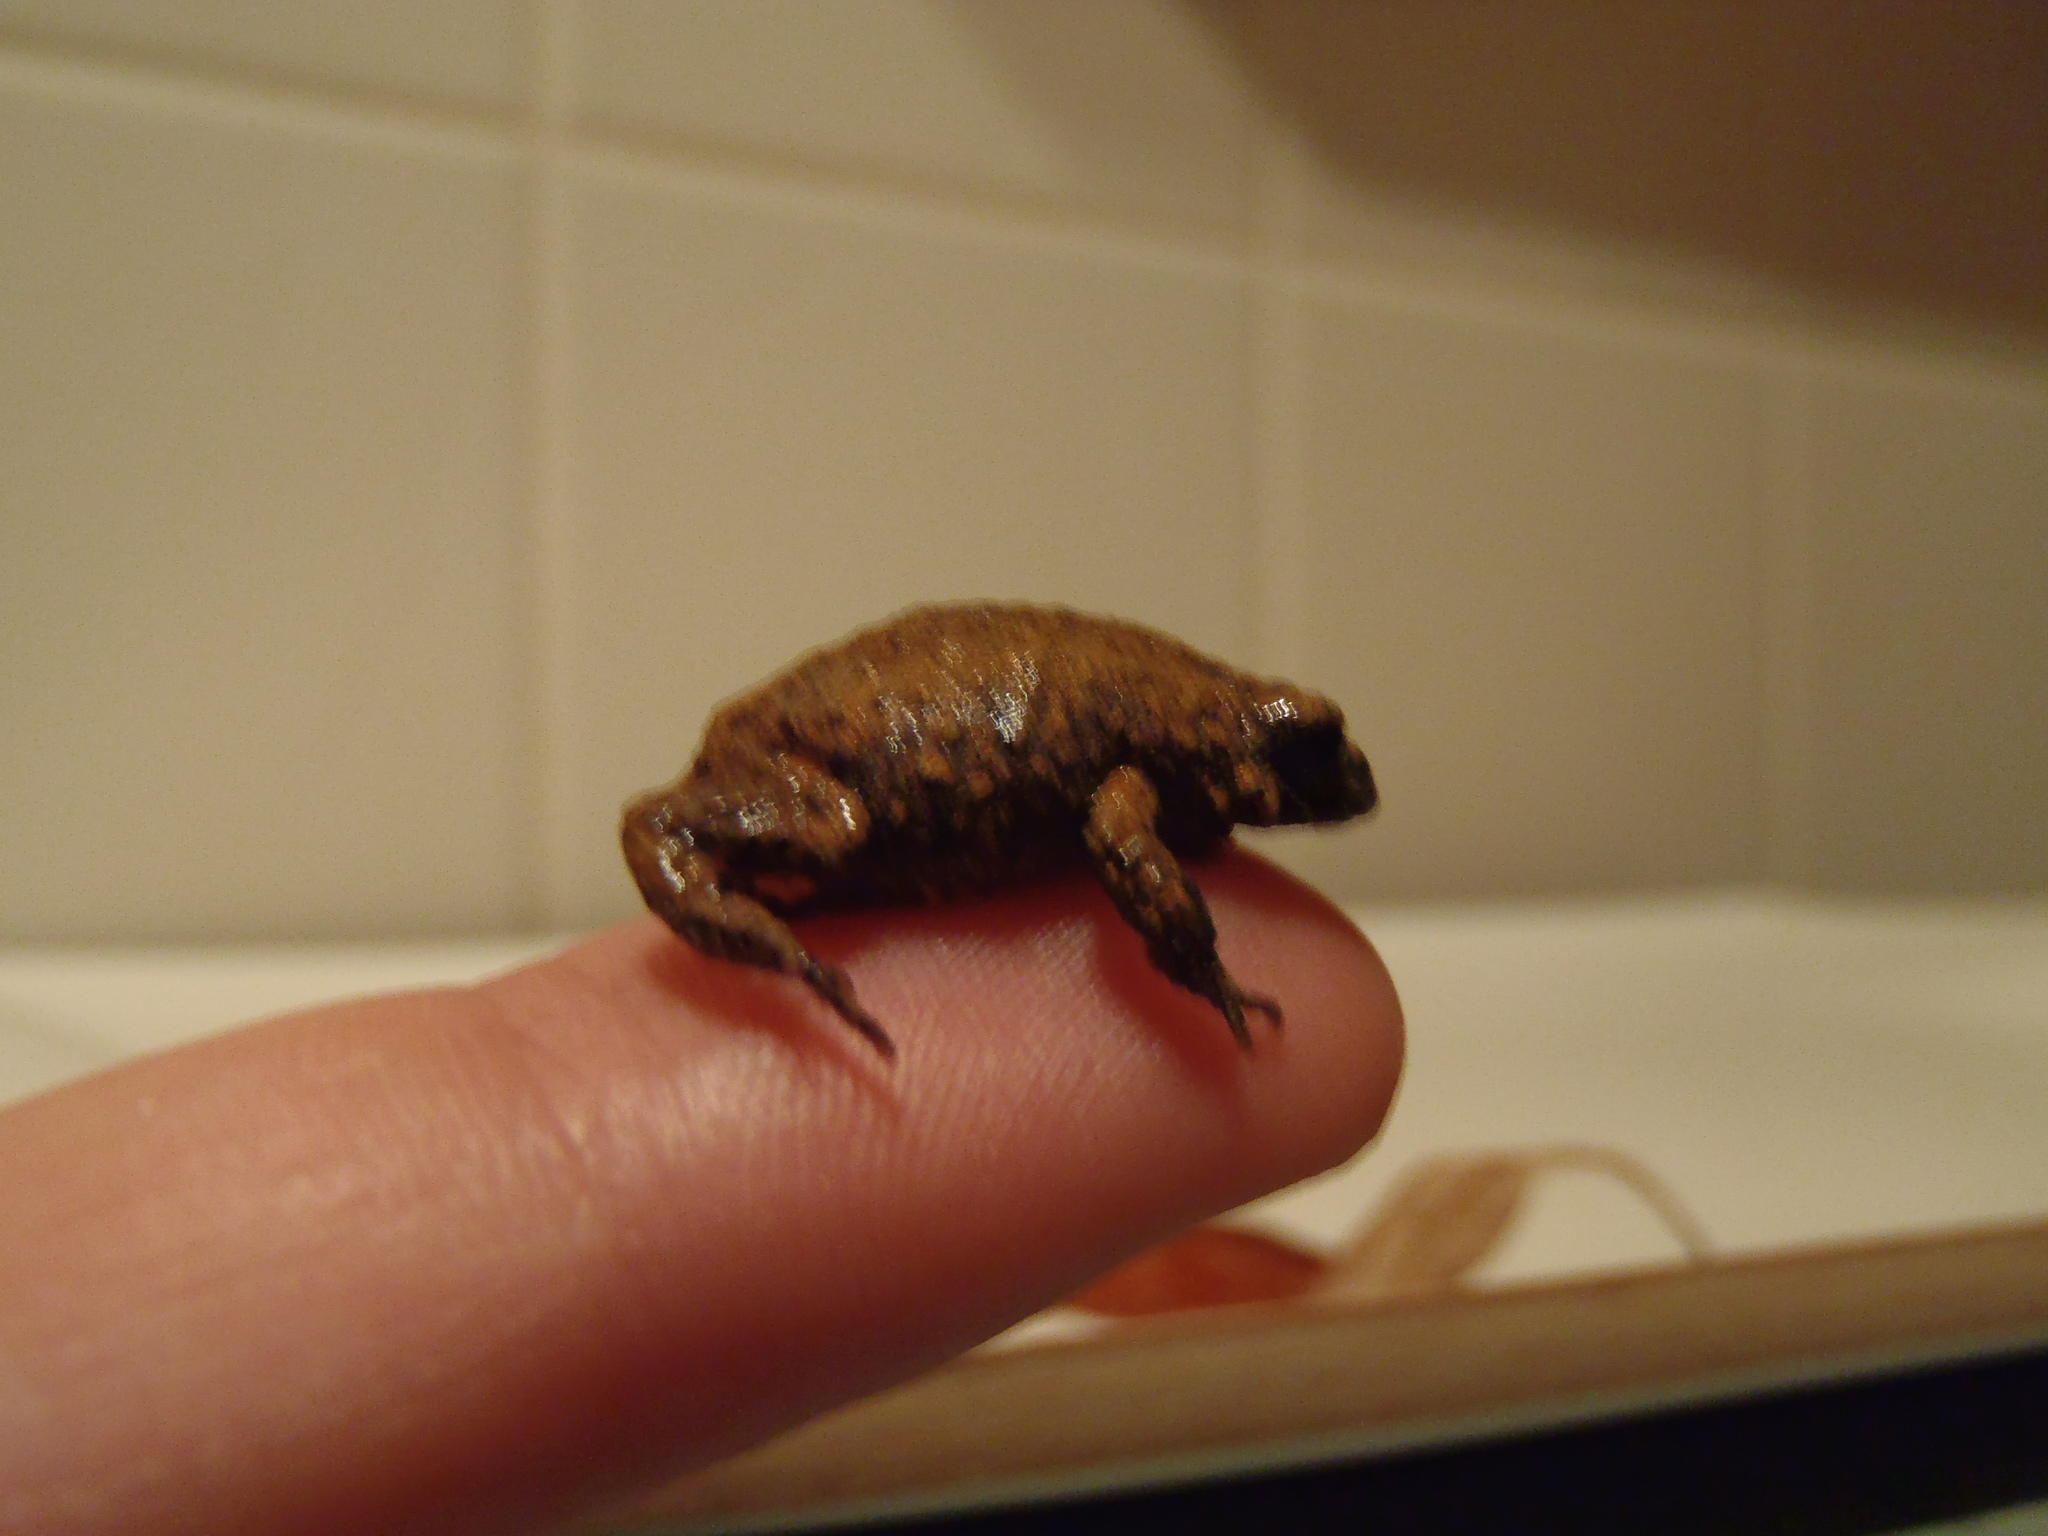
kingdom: Animalia
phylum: Chordata
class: Amphibia
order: Anura
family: Myobatrachidae
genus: Metacrinia
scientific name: Metacrinia nichollsi
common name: Nicholl’s toadlet
